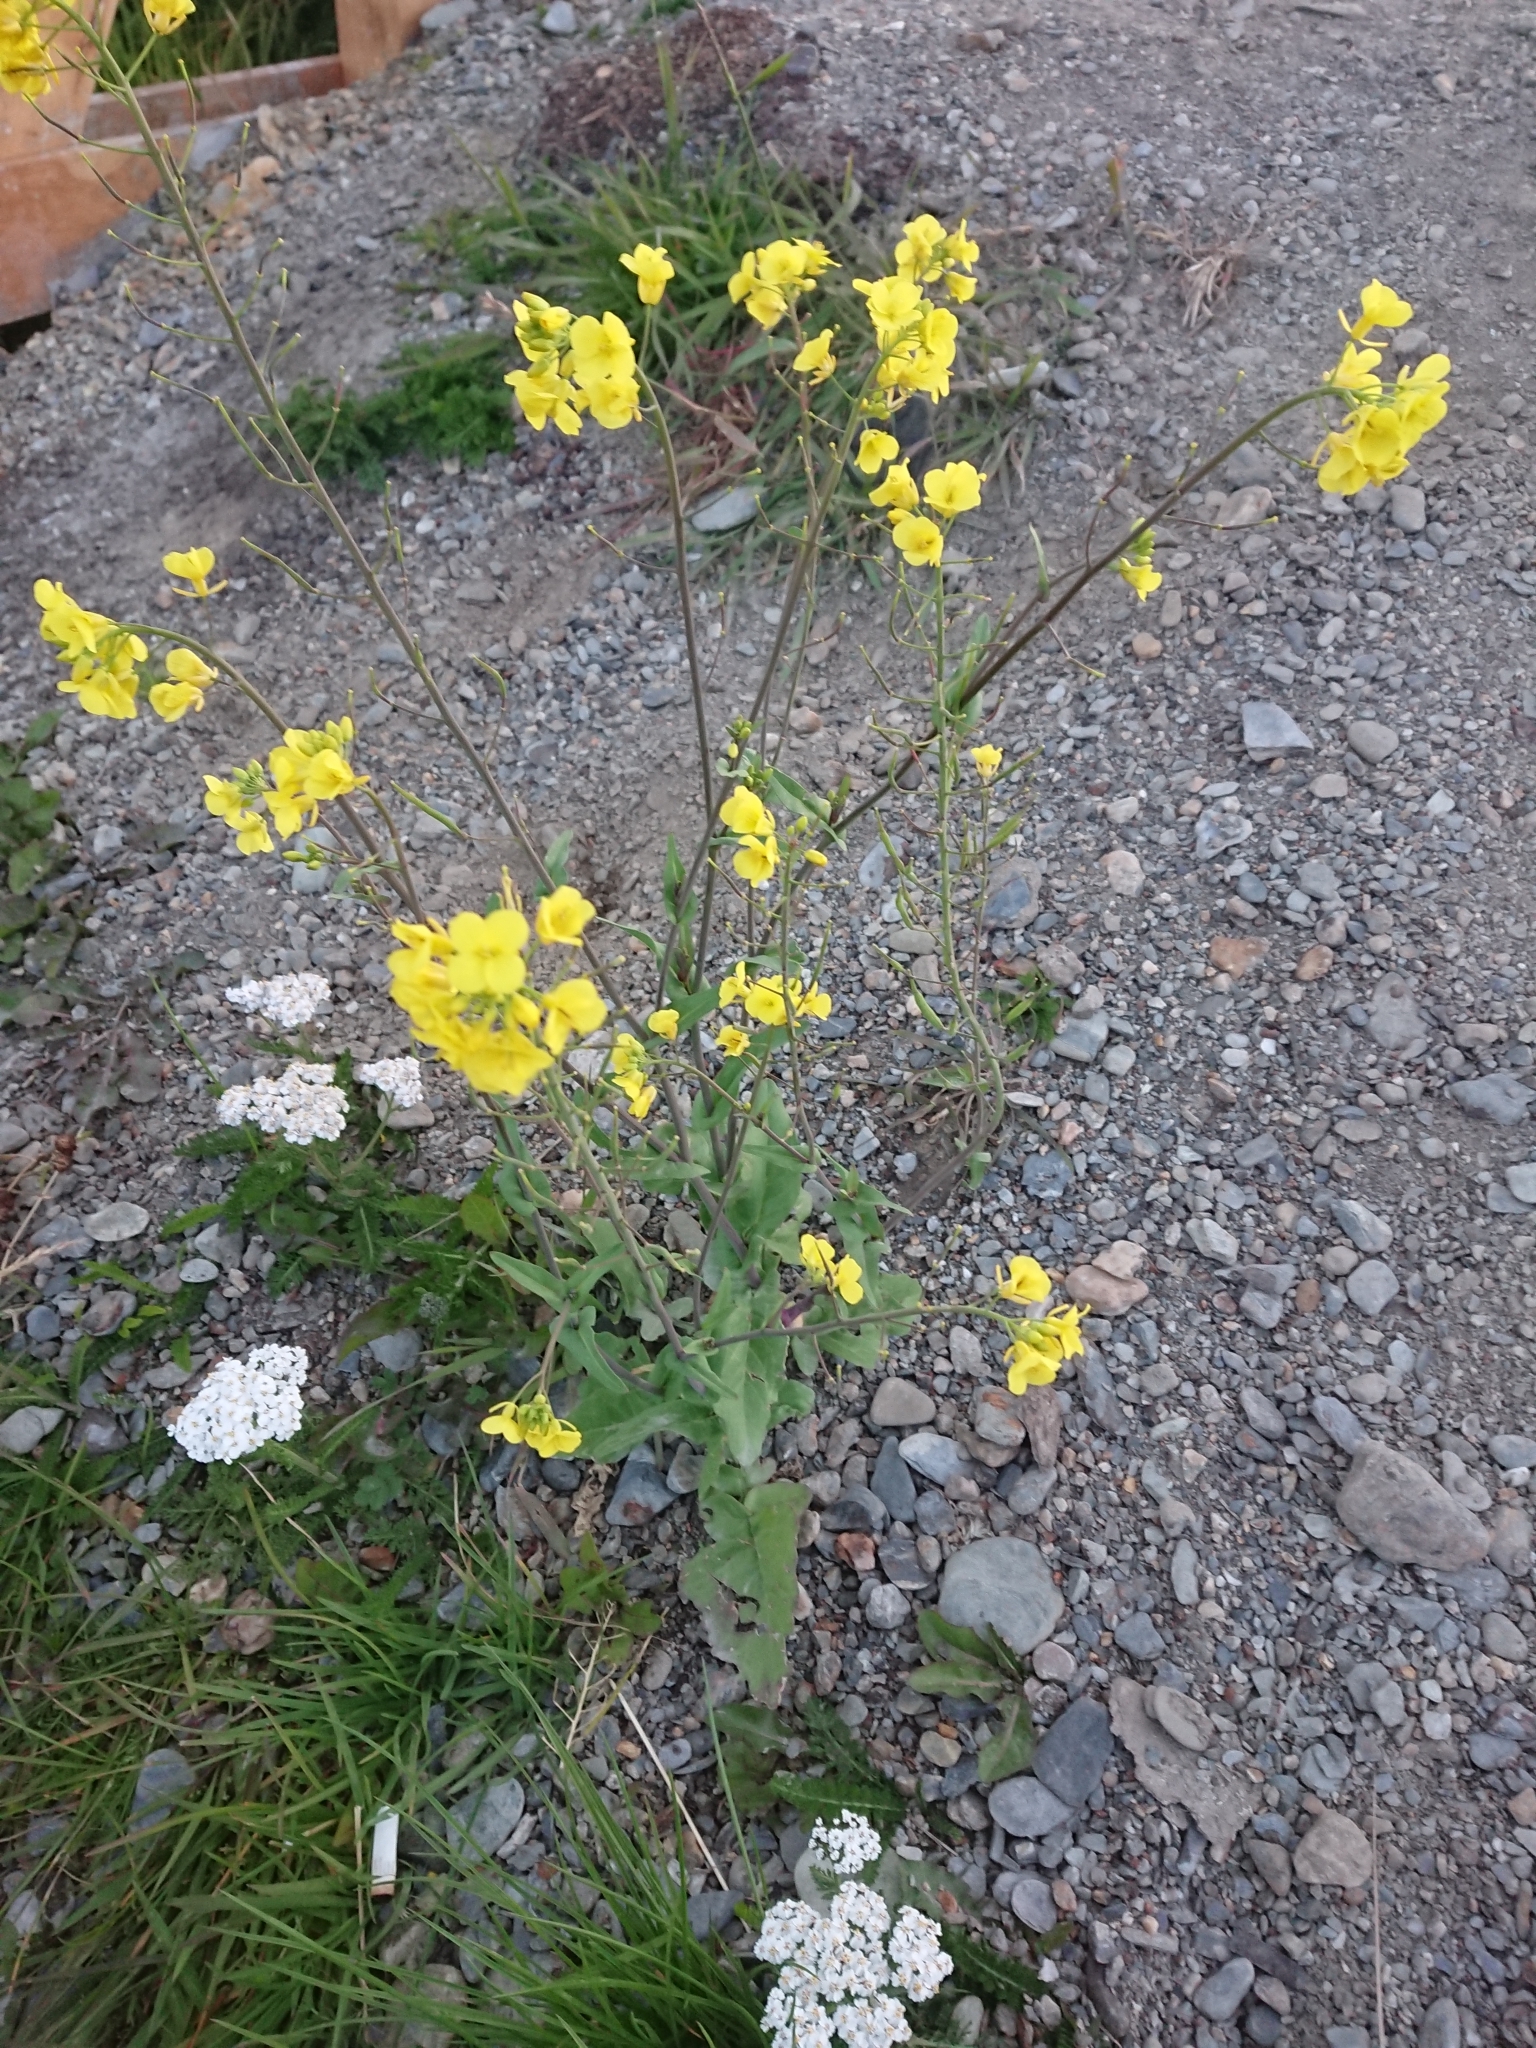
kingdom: Plantae
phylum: Tracheophyta
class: Magnoliopsida
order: Brassicales
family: Brassicaceae
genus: Brassica
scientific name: Brassica rapa
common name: Field mustard
